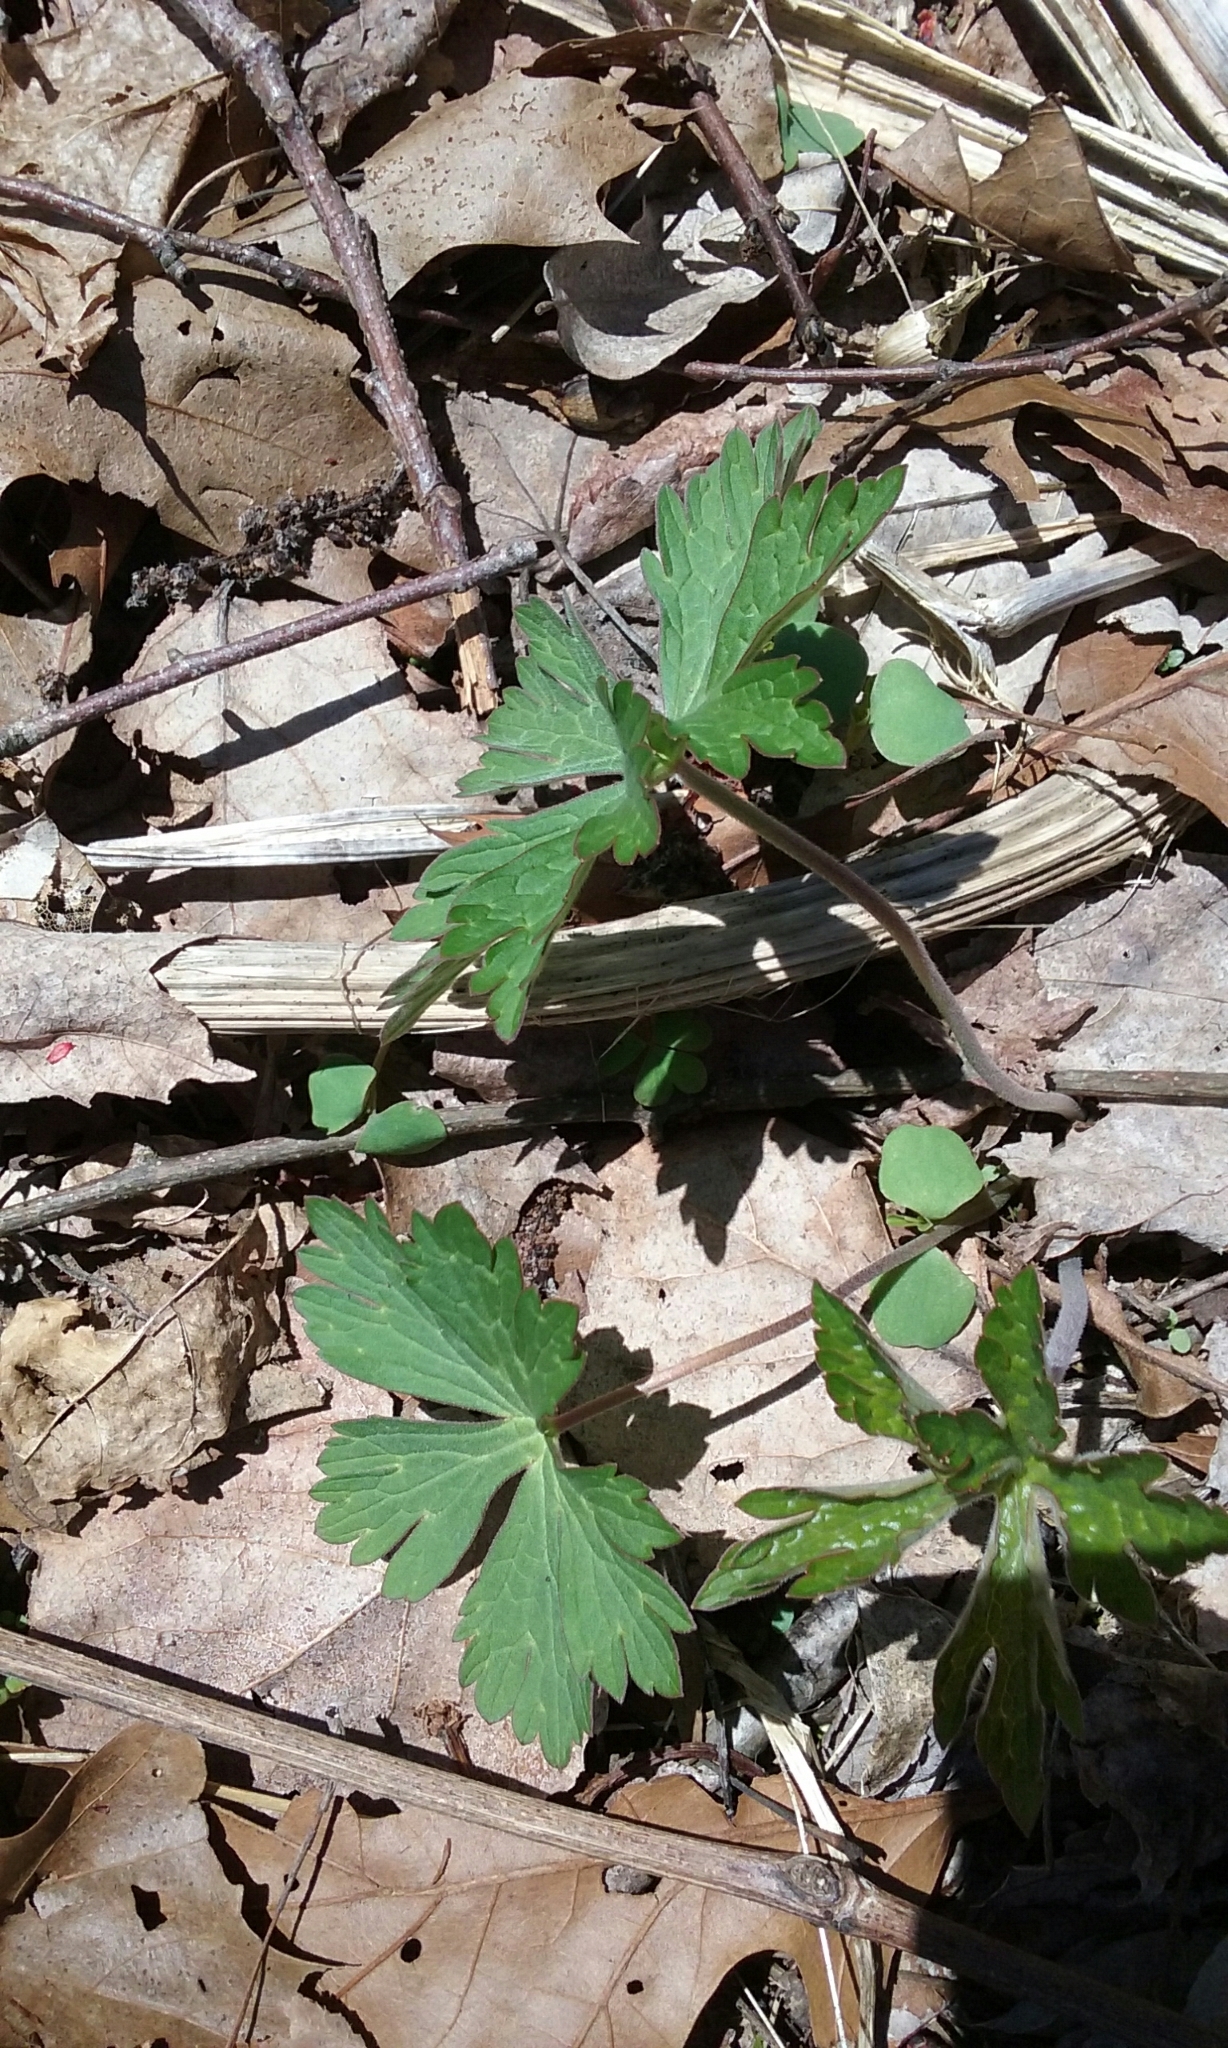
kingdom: Plantae
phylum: Tracheophyta
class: Magnoliopsida
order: Geraniales
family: Geraniaceae
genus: Geranium
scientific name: Geranium maculatum
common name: Spotted geranium
